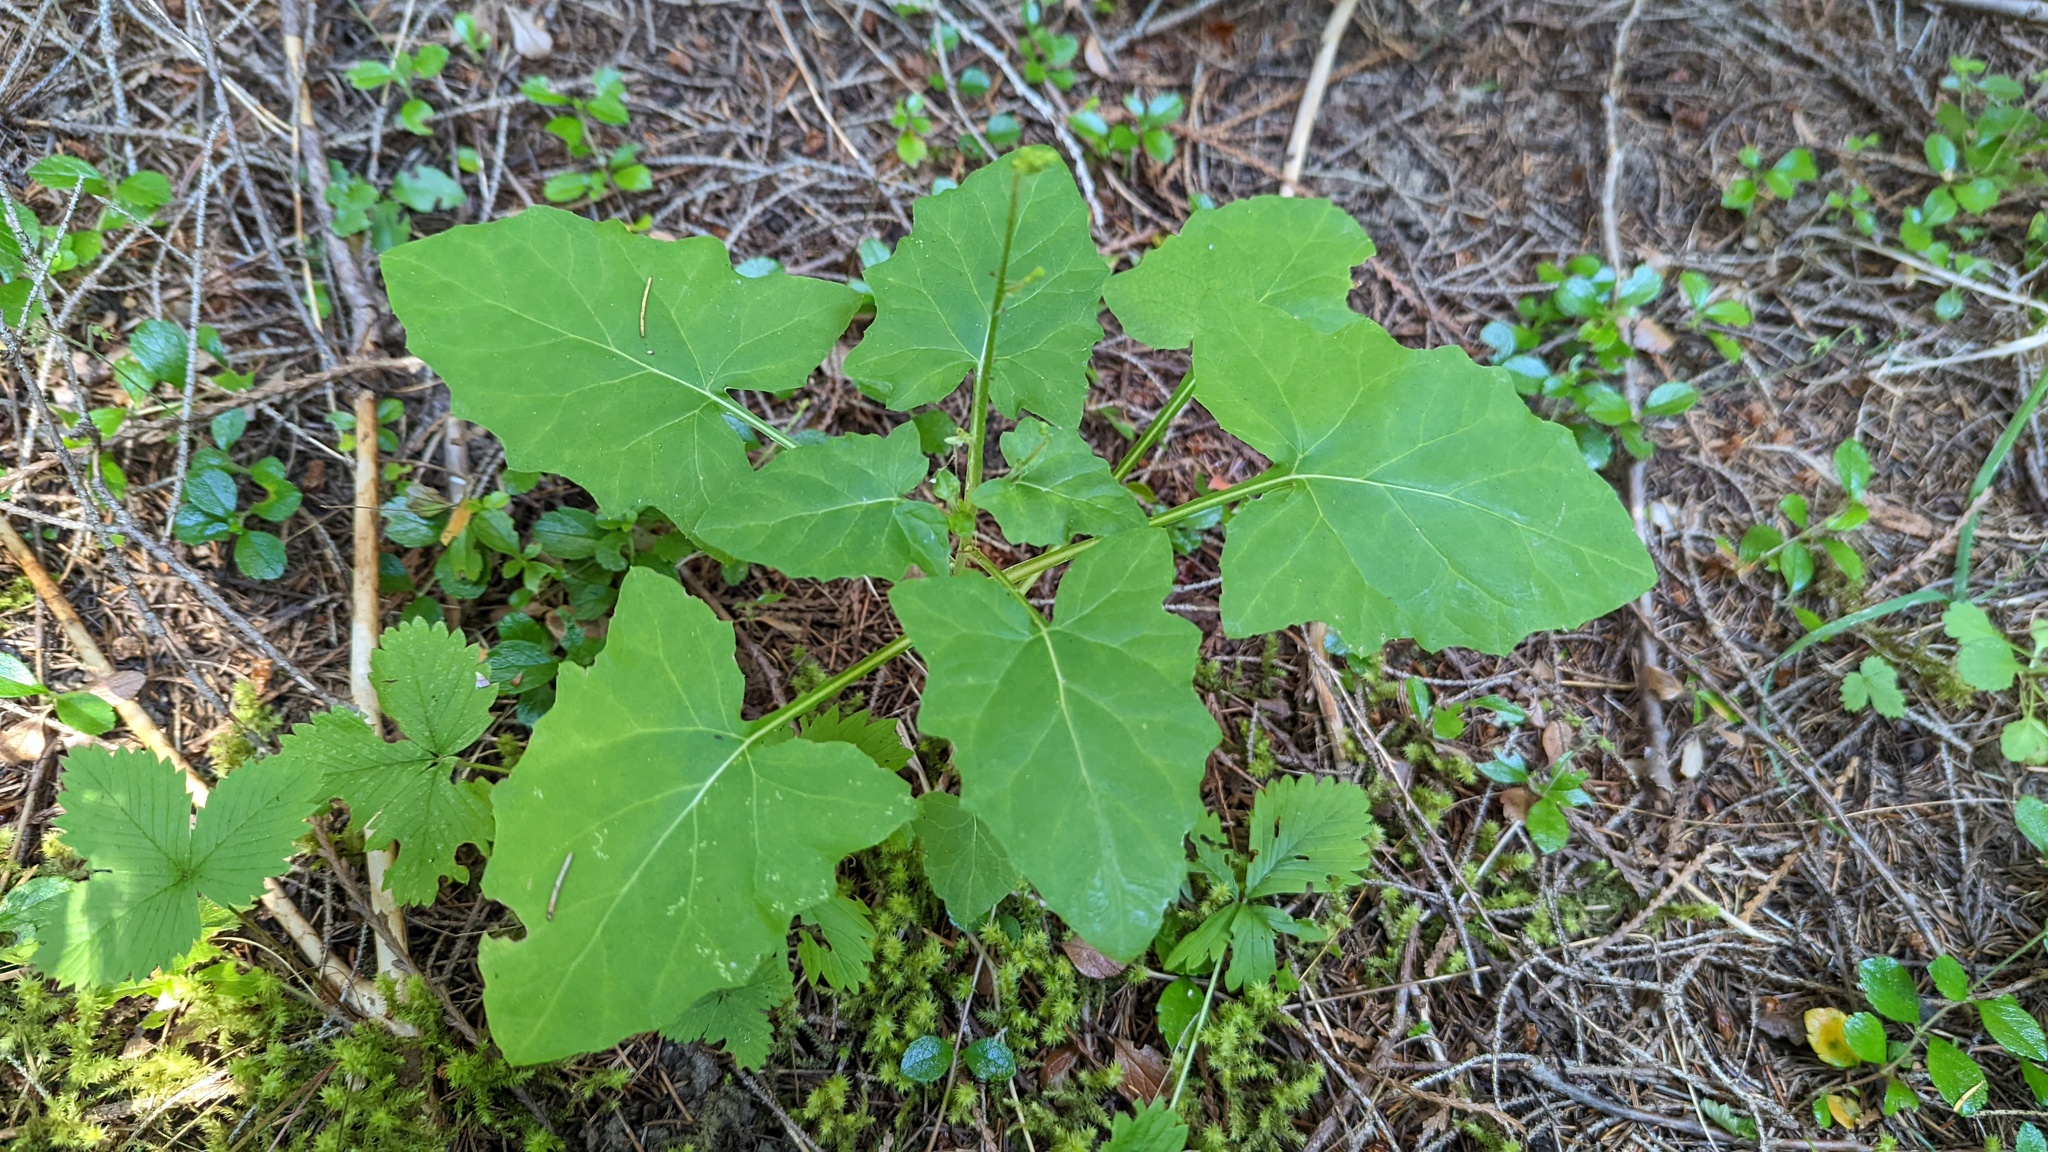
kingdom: Plantae
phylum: Tracheophyta
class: Magnoliopsida
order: Asterales
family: Asteraceae
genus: Adenocaulon
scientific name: Adenocaulon bicolor
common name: Trailplant
